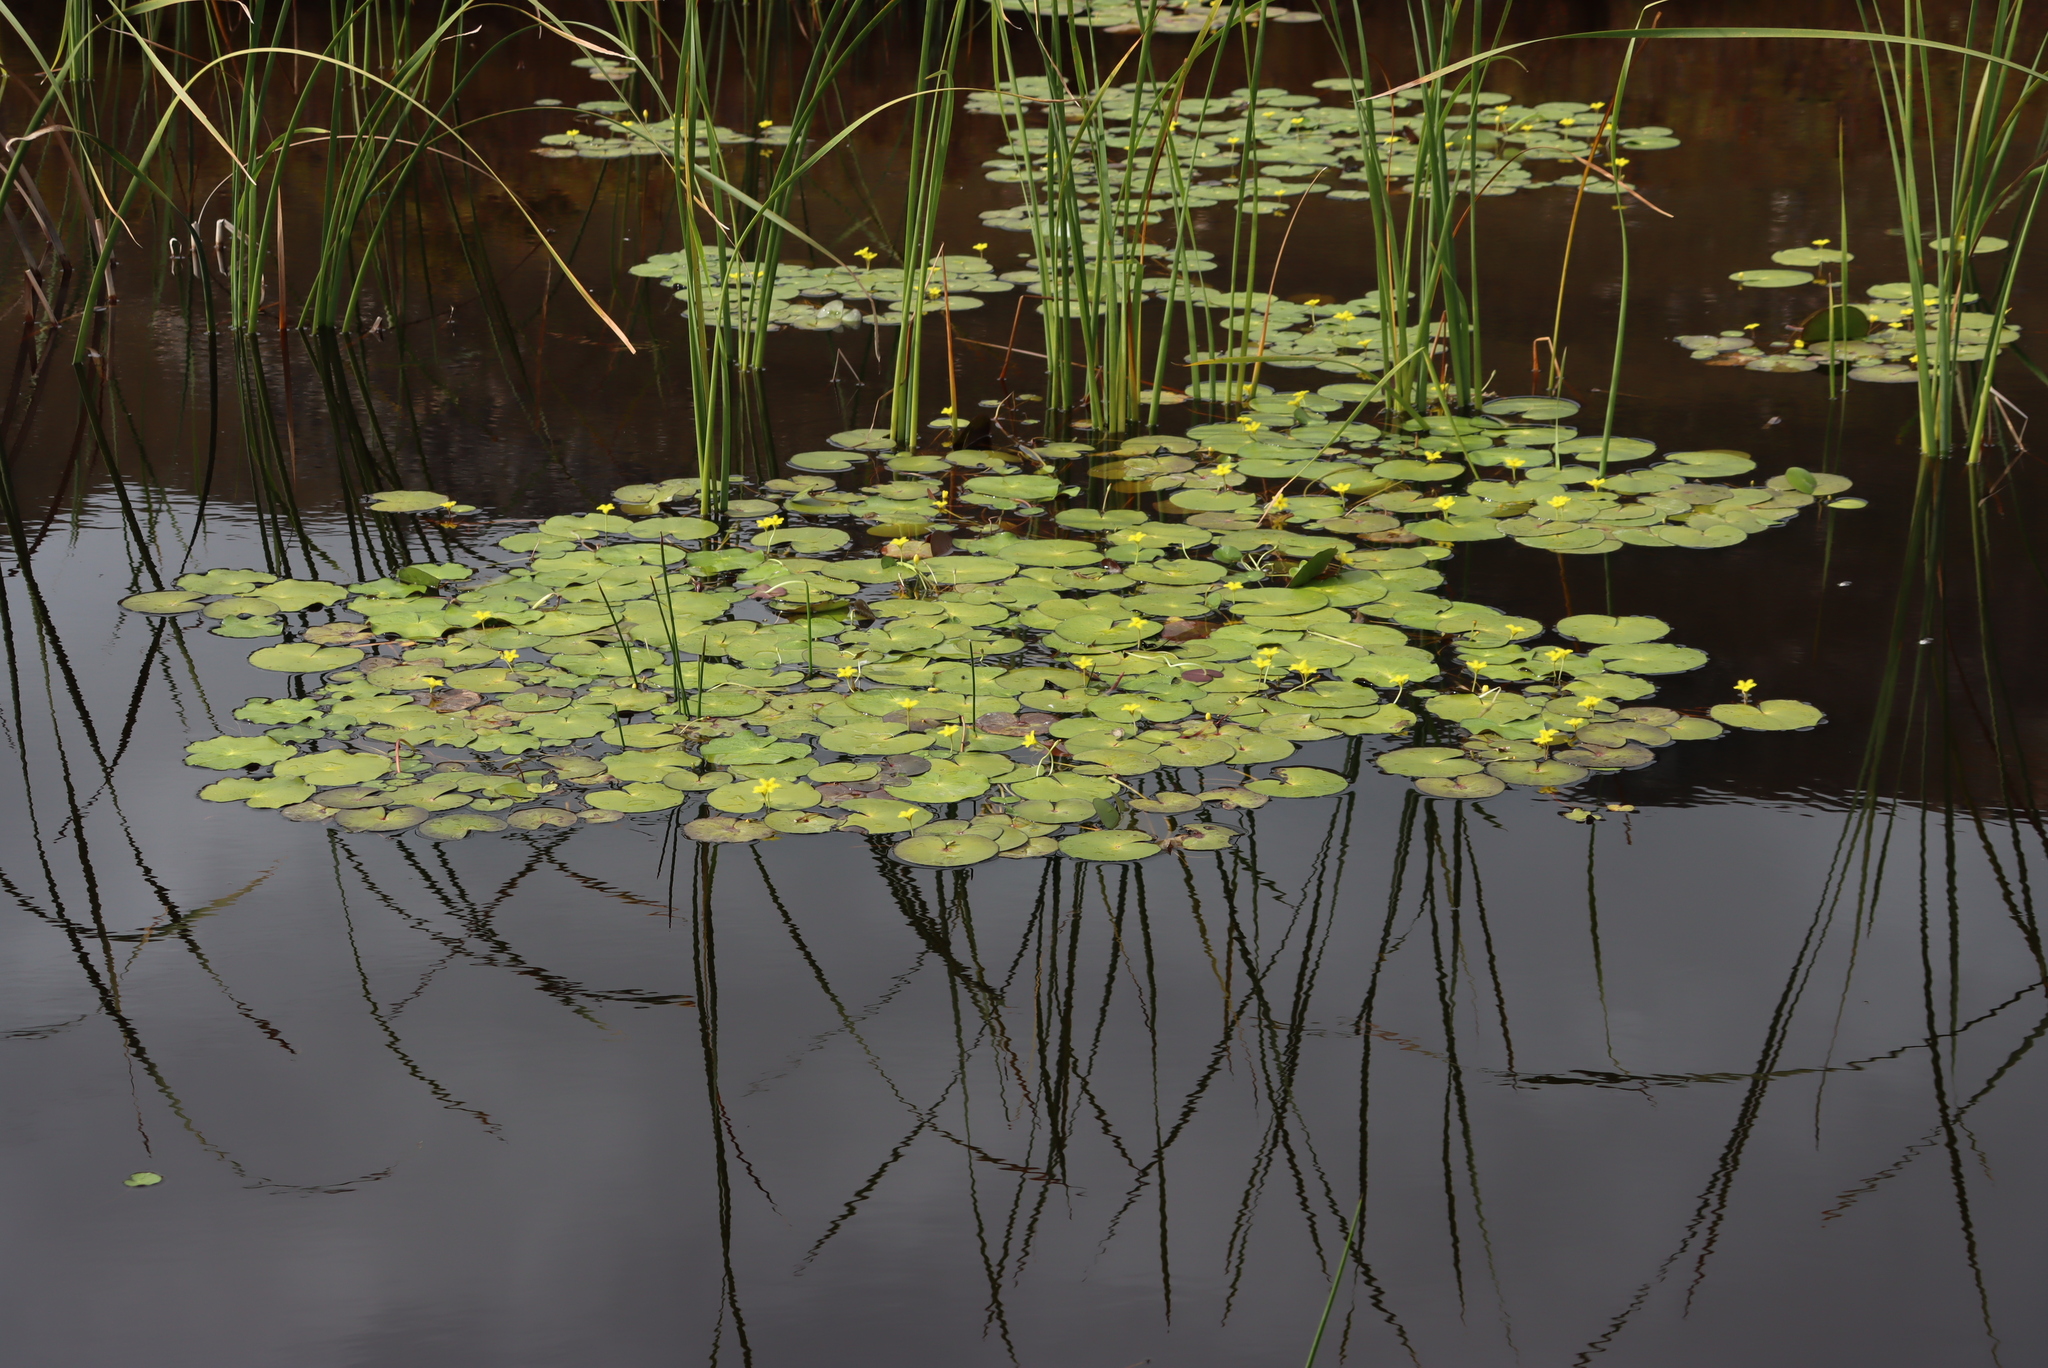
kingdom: Plantae
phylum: Tracheophyta
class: Magnoliopsida
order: Asterales
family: Menyanthaceae
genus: Nymphoides
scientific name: Nymphoides thunbergiana
